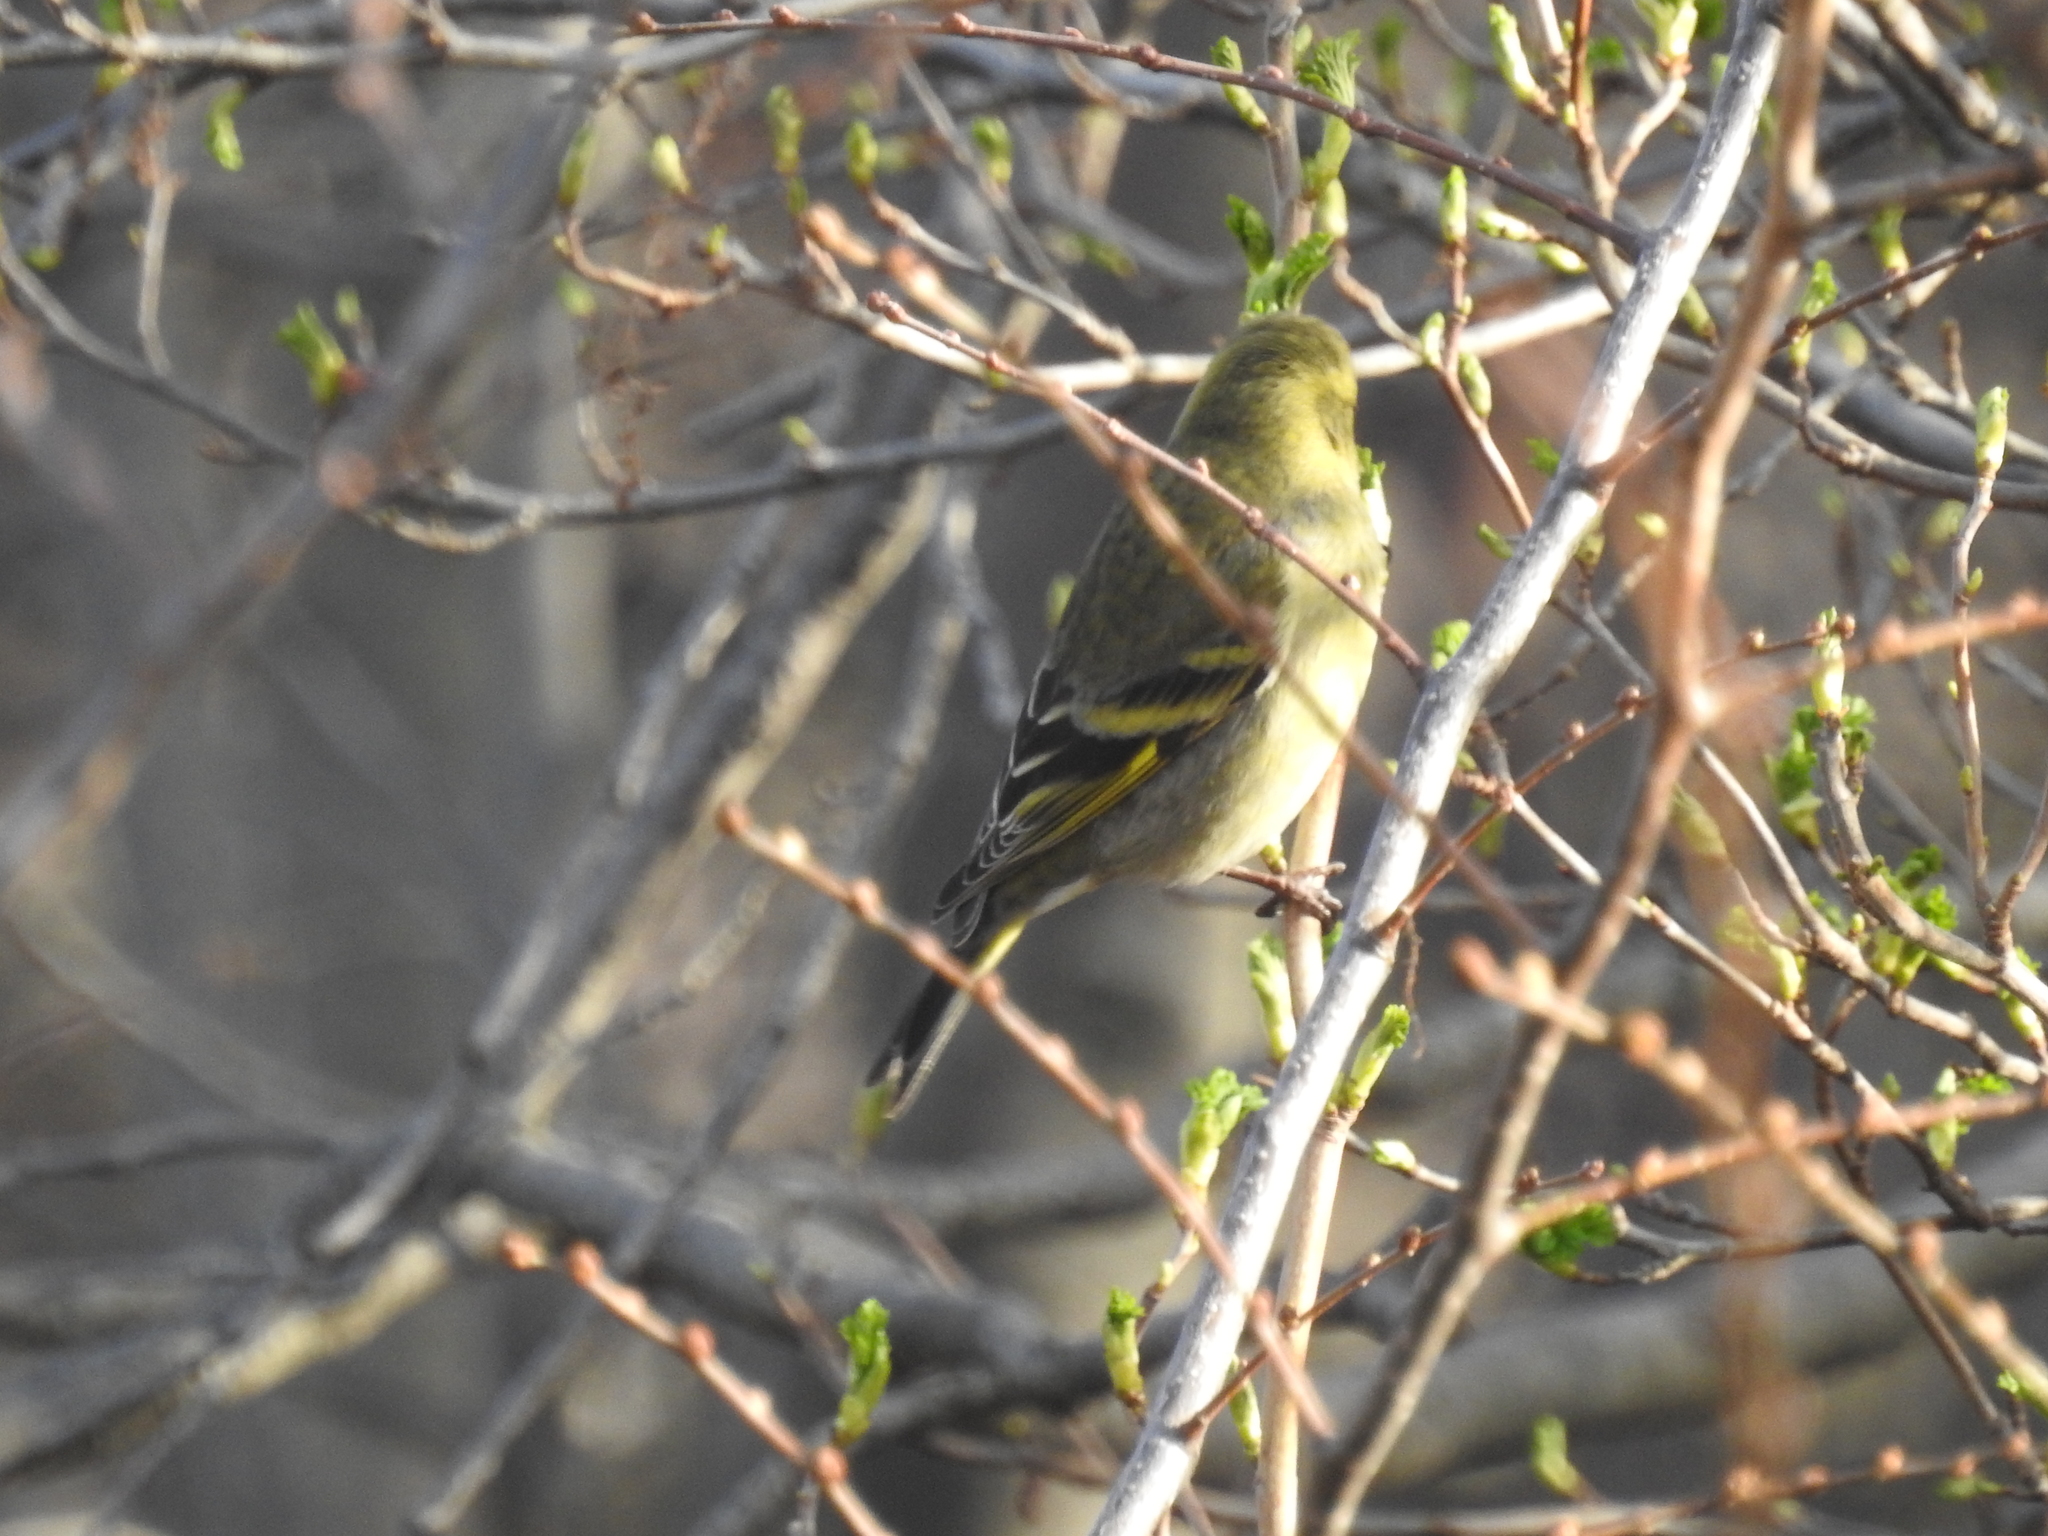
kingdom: Animalia
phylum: Chordata
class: Aves
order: Passeriformes
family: Fringillidae
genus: Spinus
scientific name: Spinus barbatus
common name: Black-chinned siskin
